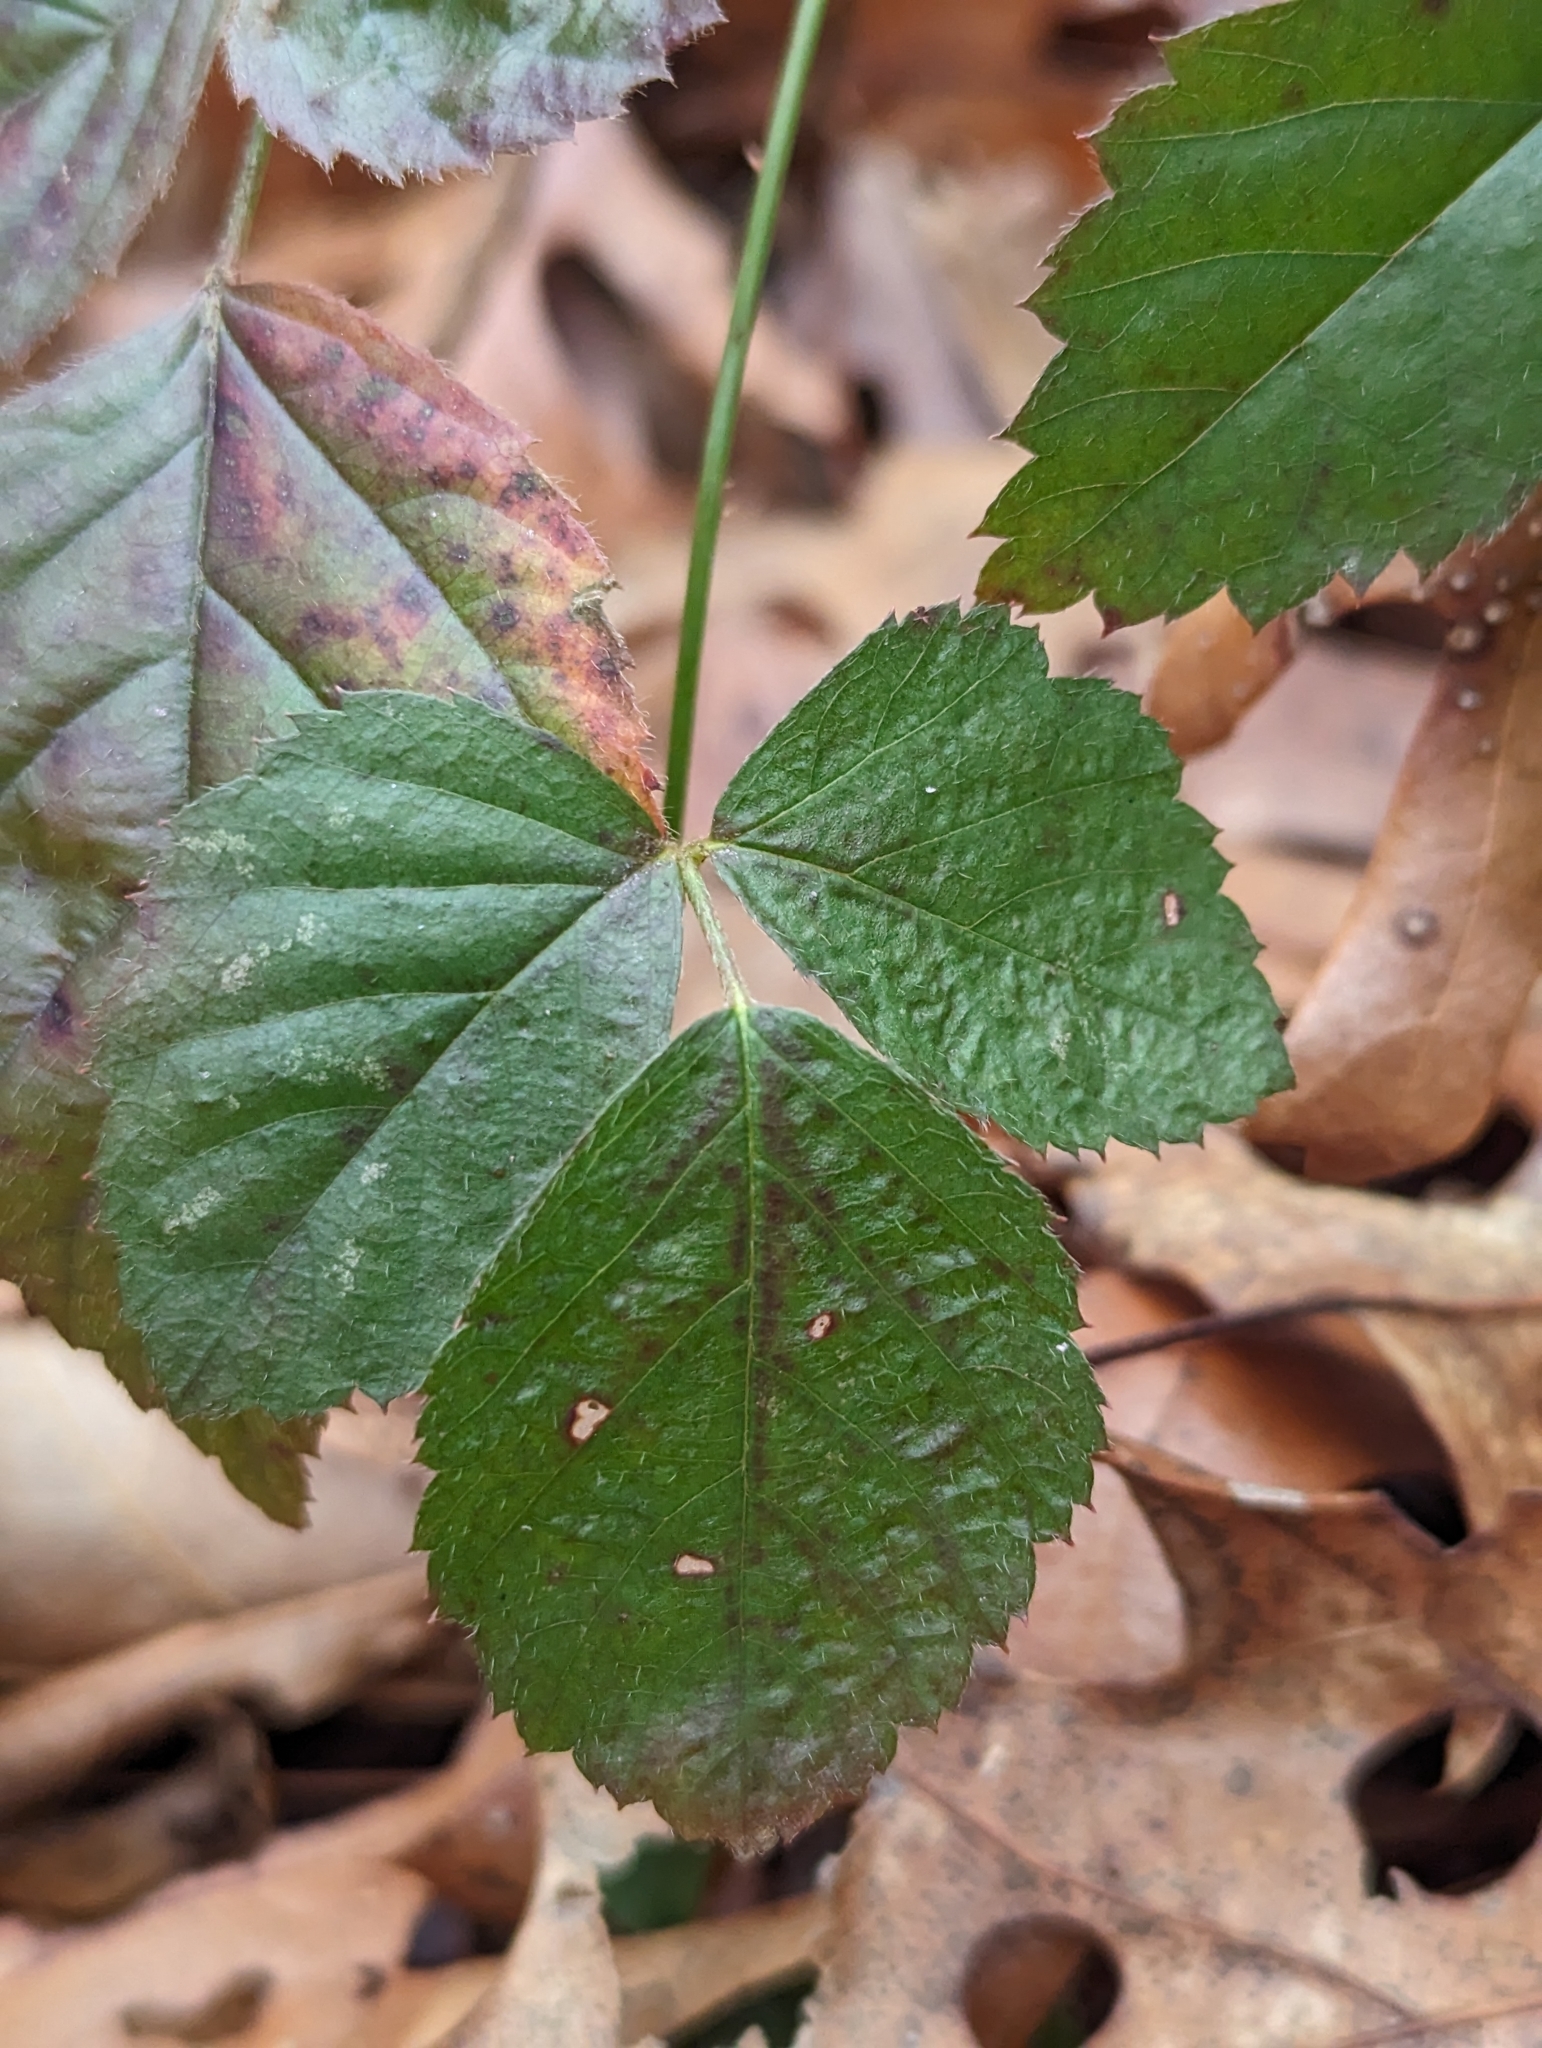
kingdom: Plantae
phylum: Tracheophyta
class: Magnoliopsida
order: Rosales
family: Rosaceae
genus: Rubus
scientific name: Rubus hispidus
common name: Running blackberry
